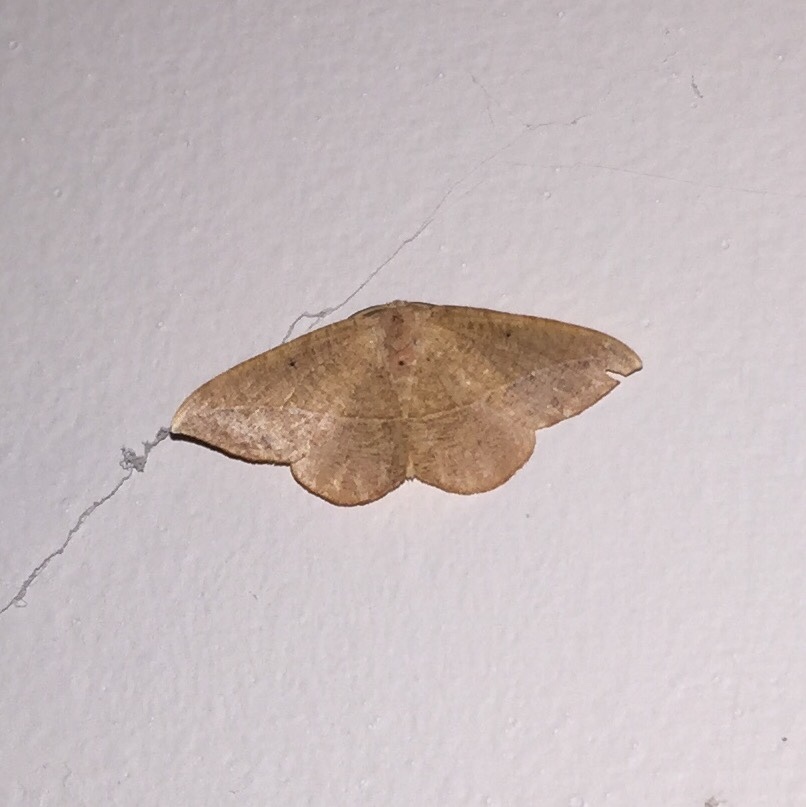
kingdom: Animalia
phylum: Arthropoda
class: Insecta
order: Lepidoptera
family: Geometridae
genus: Patalene
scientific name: Patalene olyzonaria
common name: Juniper geometer moth
